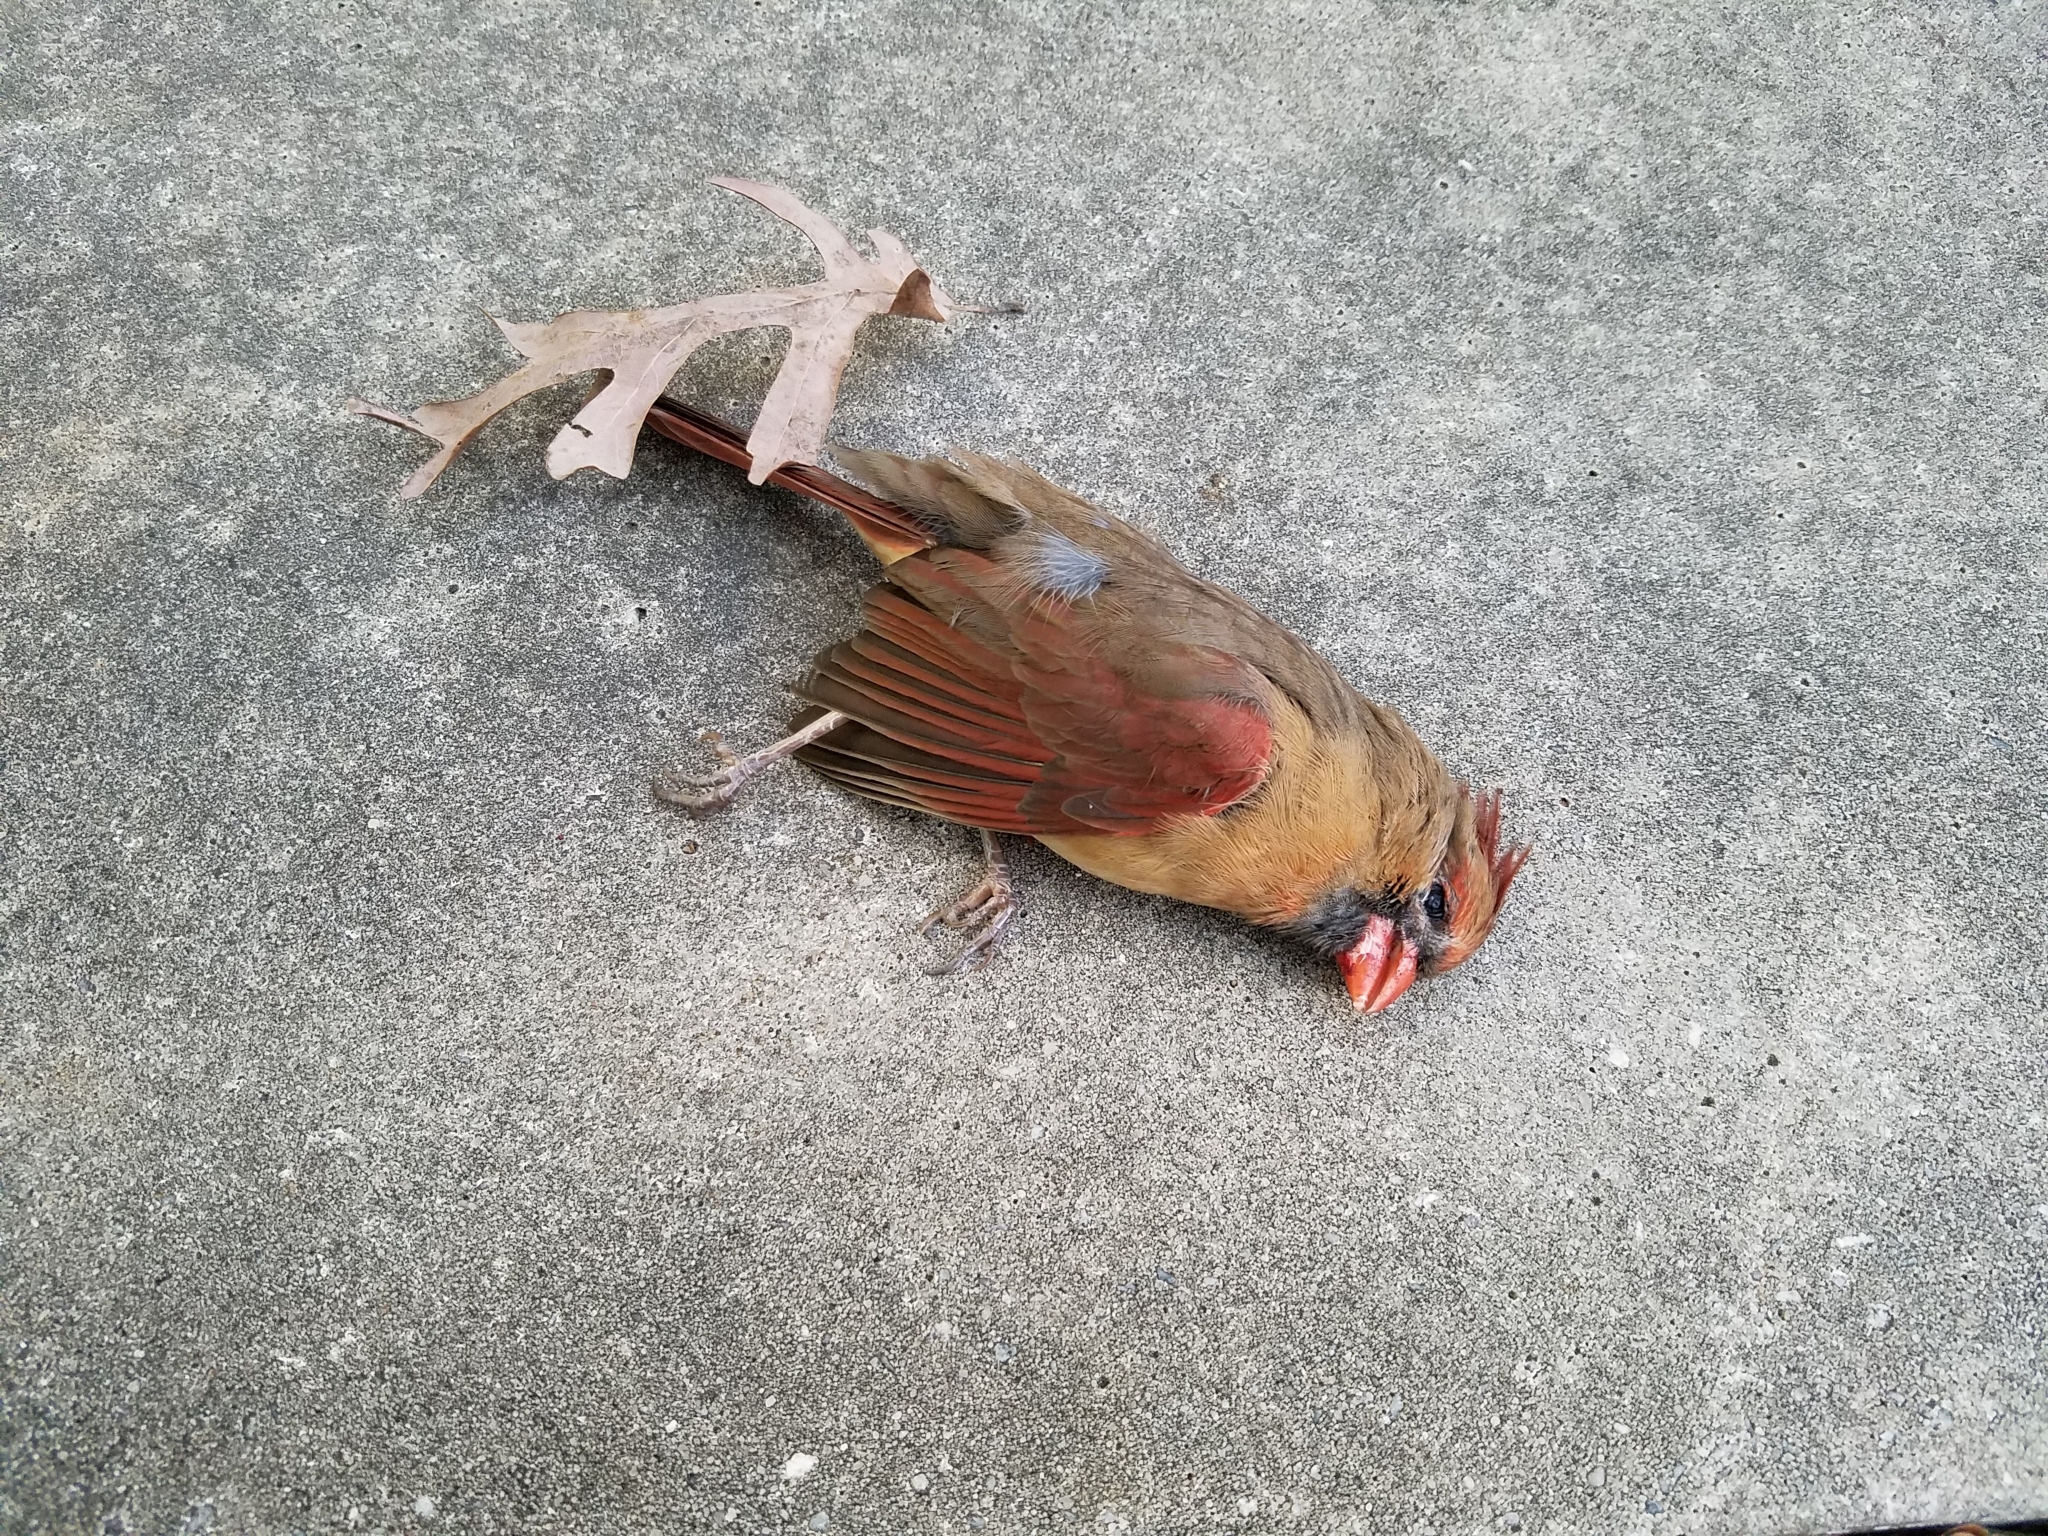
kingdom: Animalia
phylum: Chordata
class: Aves
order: Passeriformes
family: Cardinalidae
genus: Cardinalis
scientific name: Cardinalis cardinalis
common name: Northern cardinal
